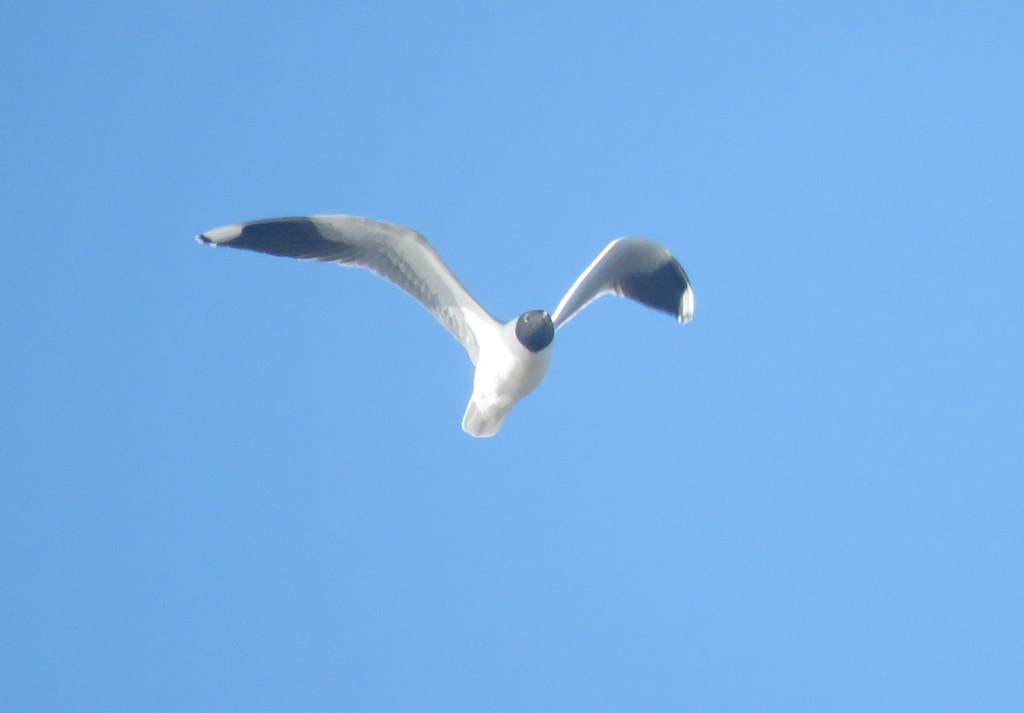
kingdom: Animalia
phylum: Chordata
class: Aves
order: Charadriiformes
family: Laridae
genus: Chroicocephalus
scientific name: Chroicocephalus maculipennis
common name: Brown-hooded gull
